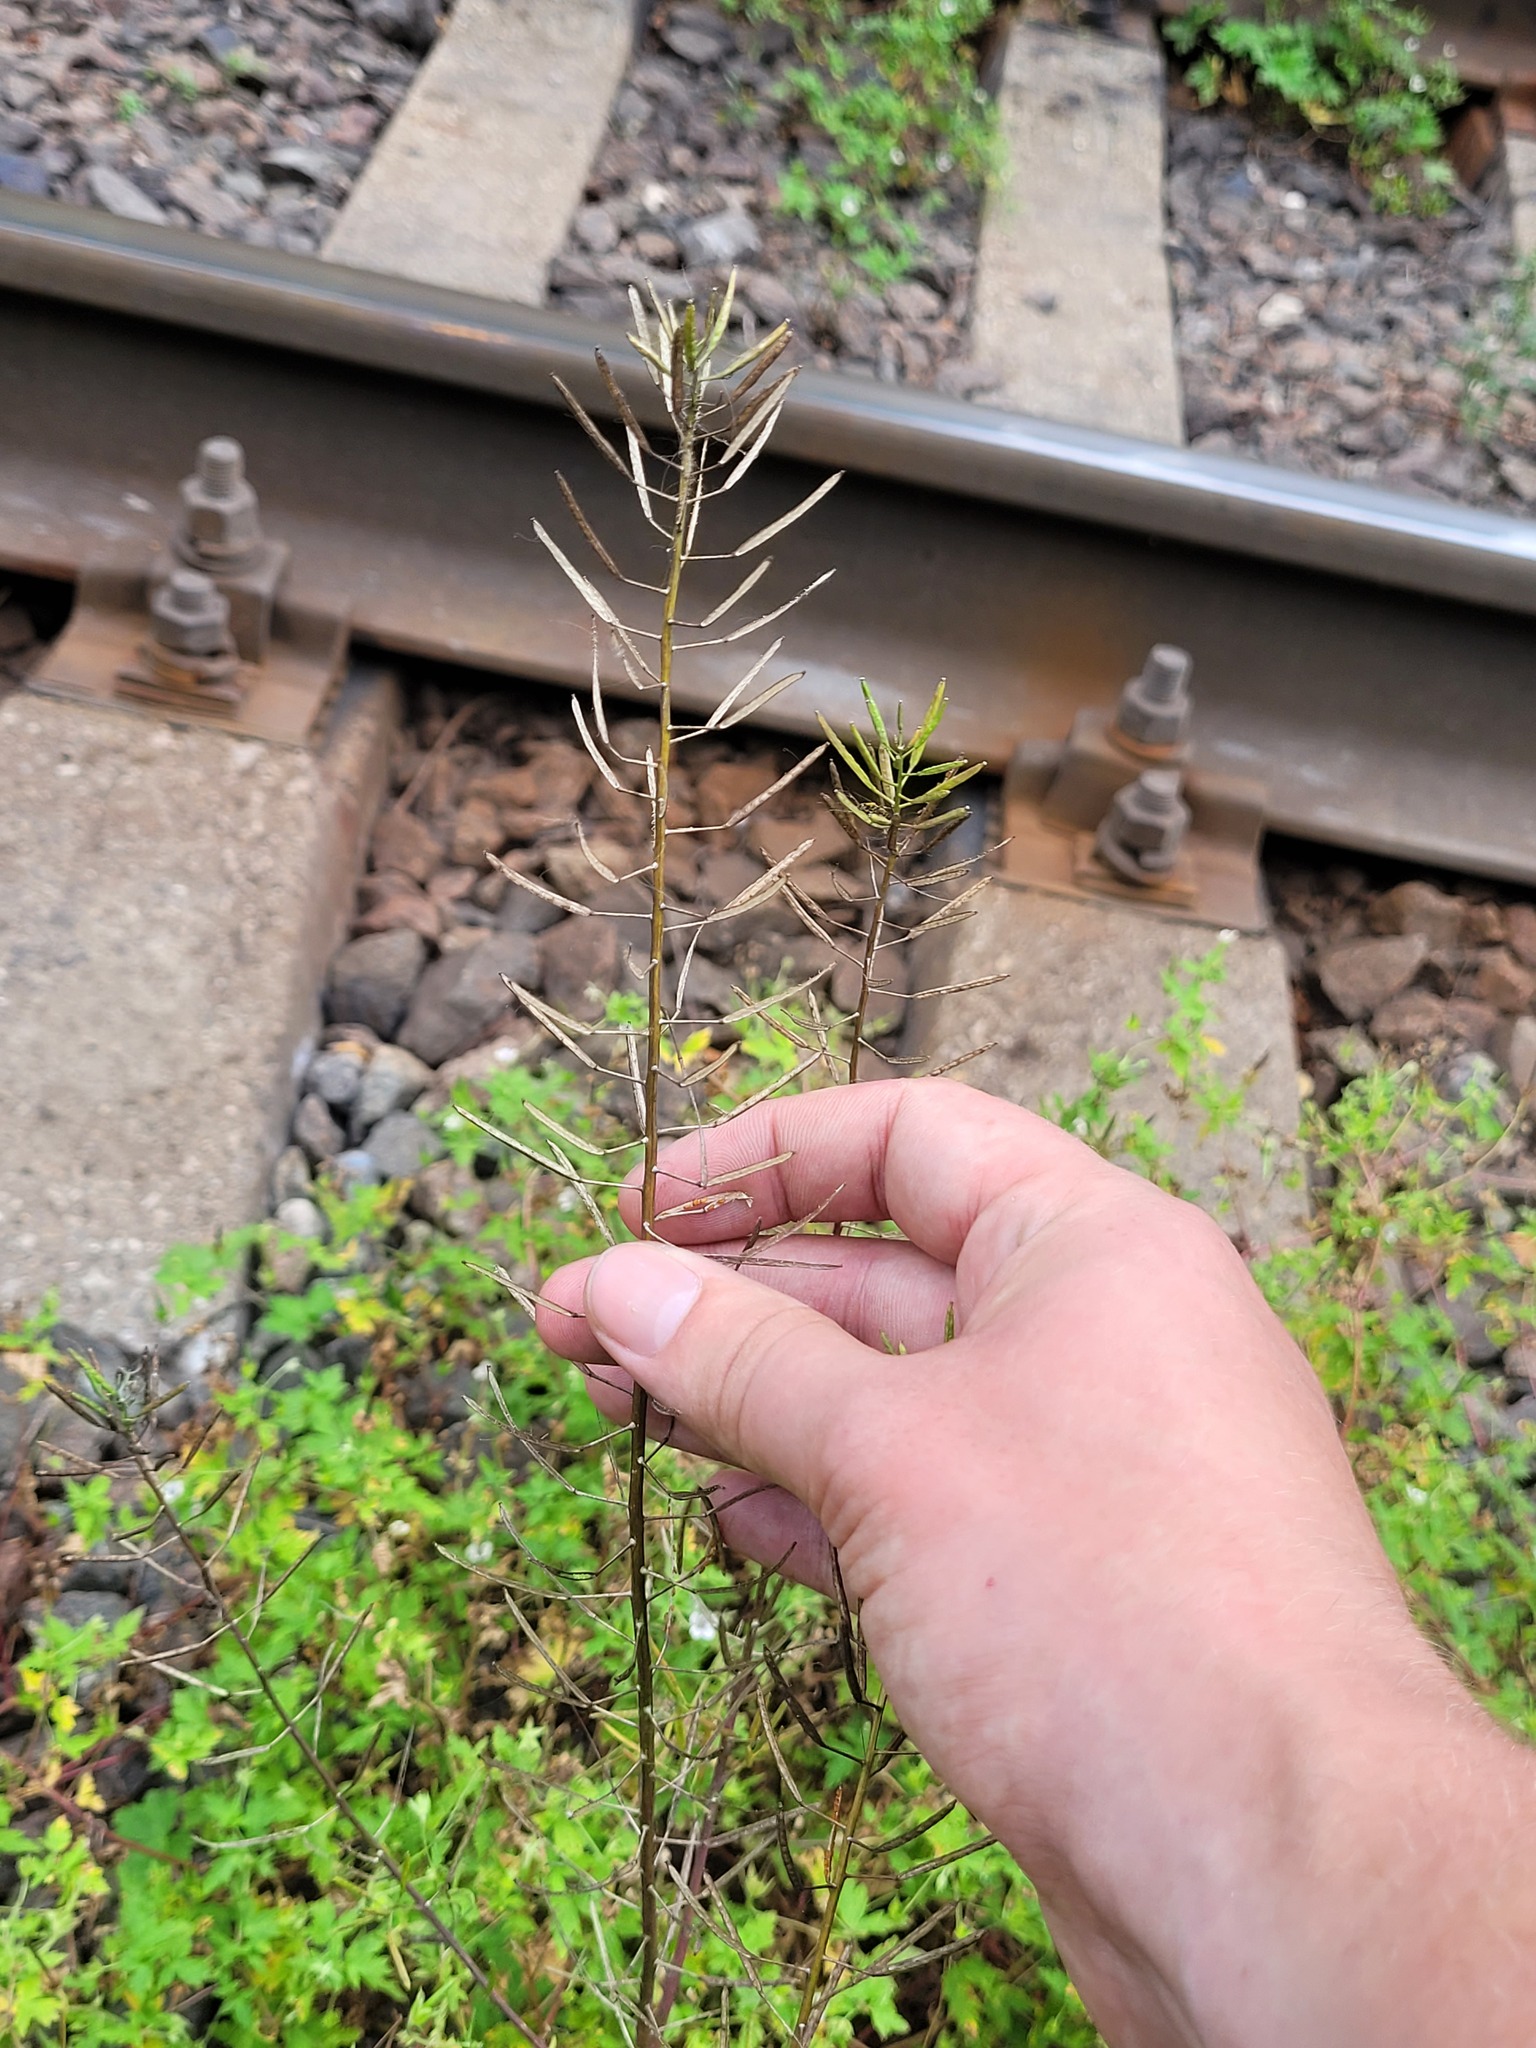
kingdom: Plantae
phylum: Tracheophyta
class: Magnoliopsida
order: Brassicales
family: Brassicaceae
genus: Erysimum
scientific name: Erysimum cheiranthoides
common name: Treacle mustard
